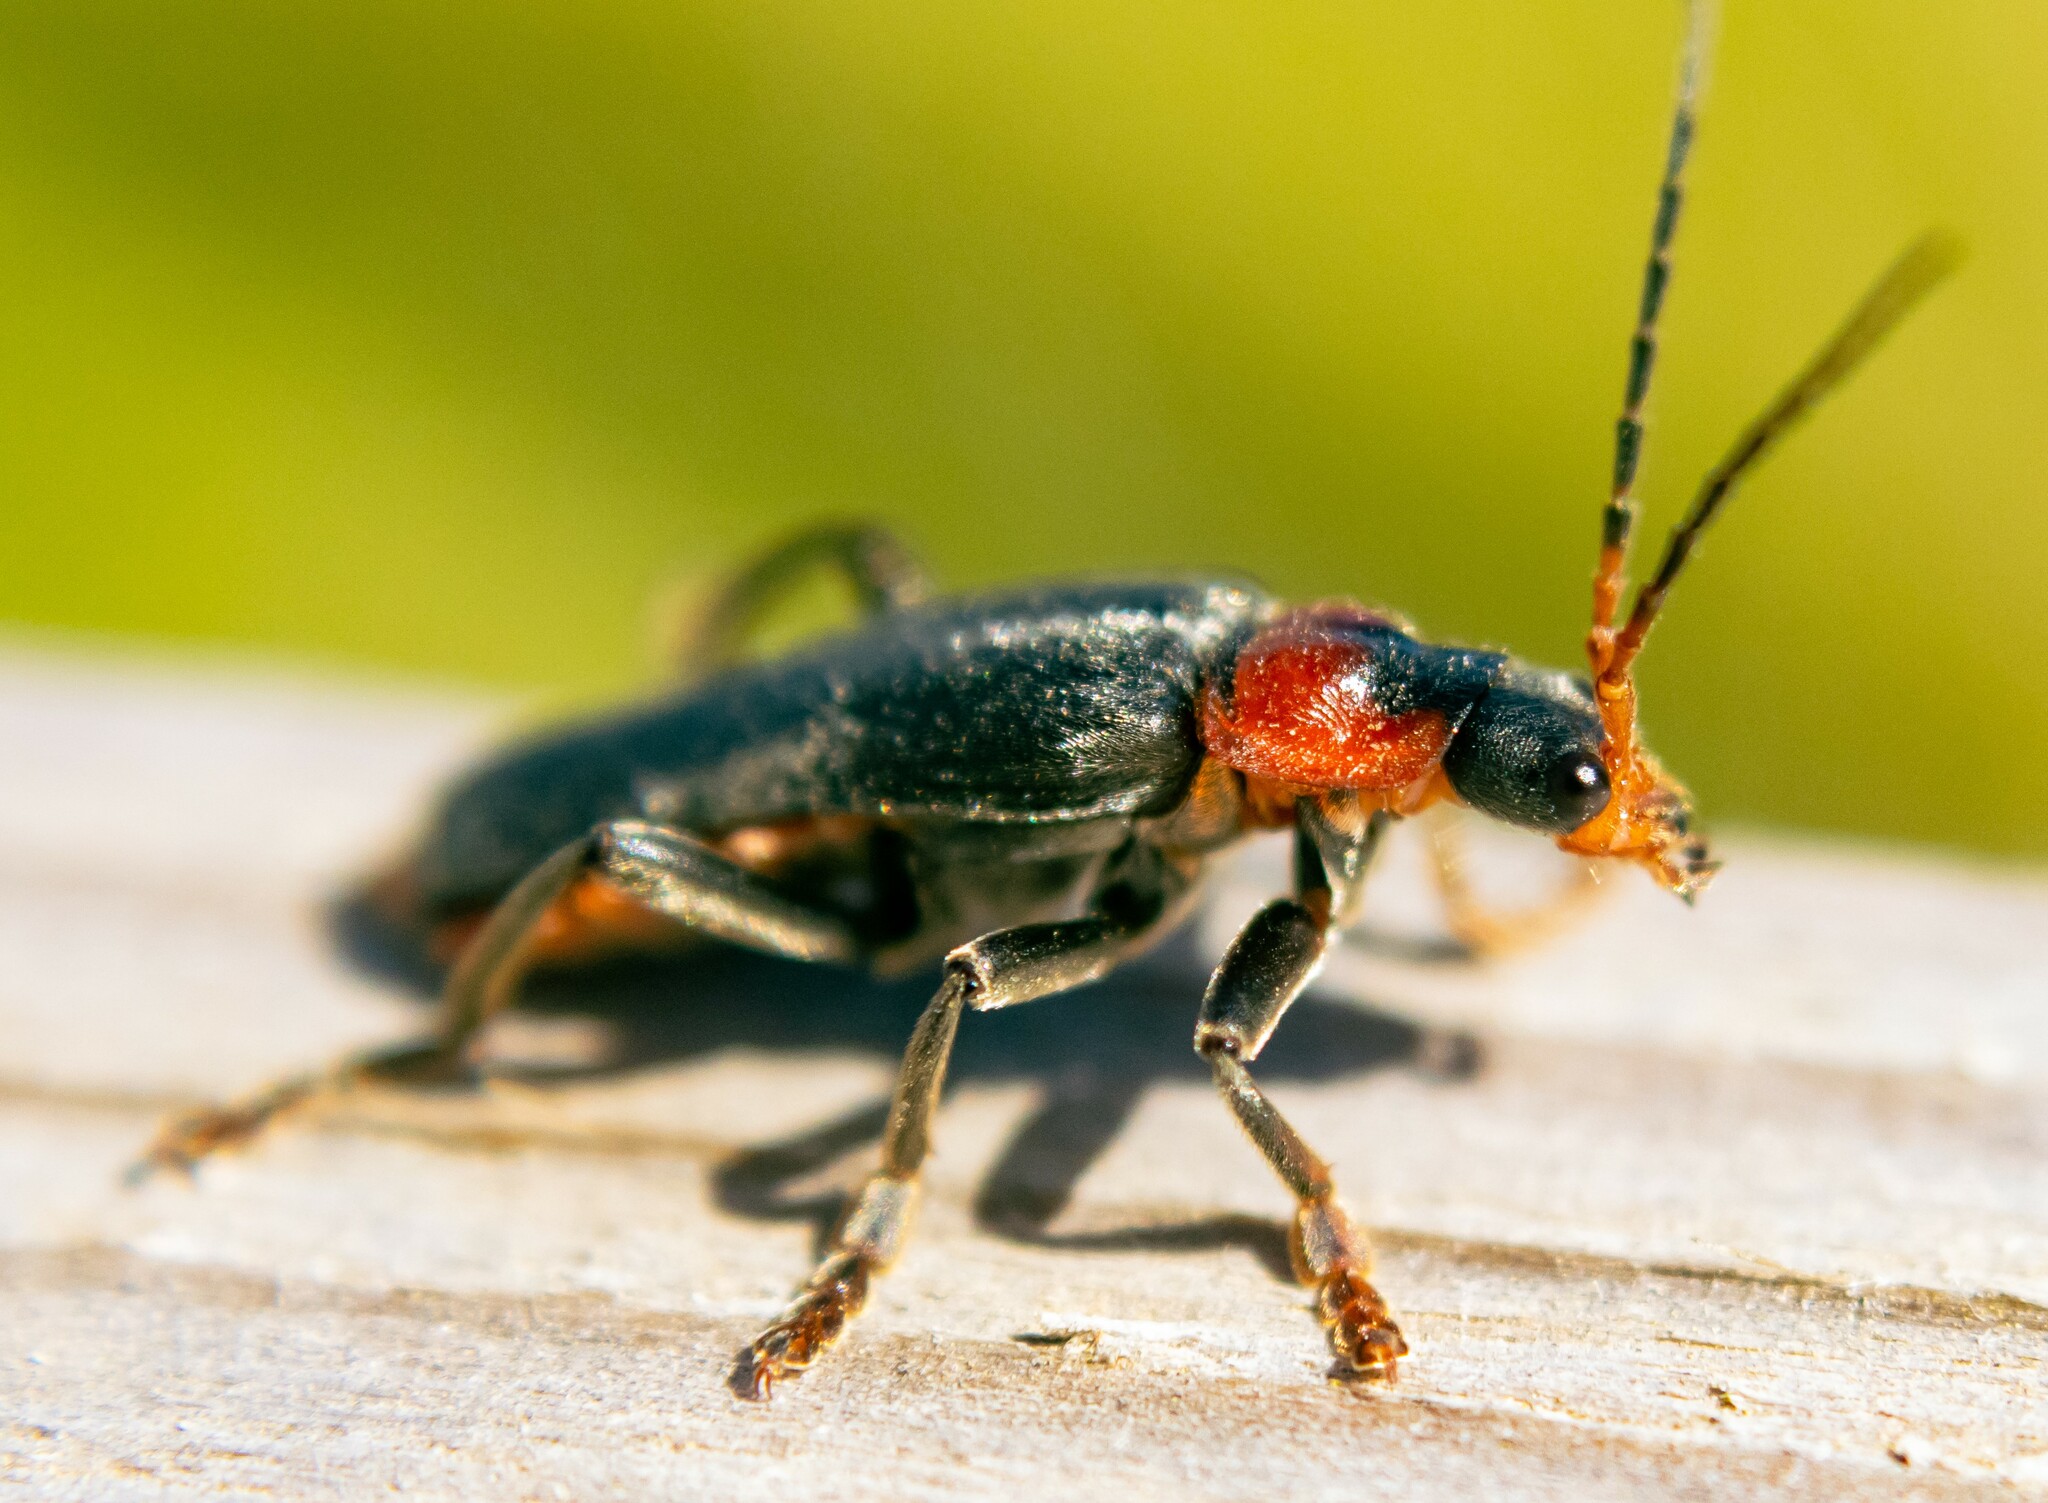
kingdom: Animalia
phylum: Arthropoda
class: Insecta
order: Coleoptera
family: Cantharidae
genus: Cantharis
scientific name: Cantharis fusca
